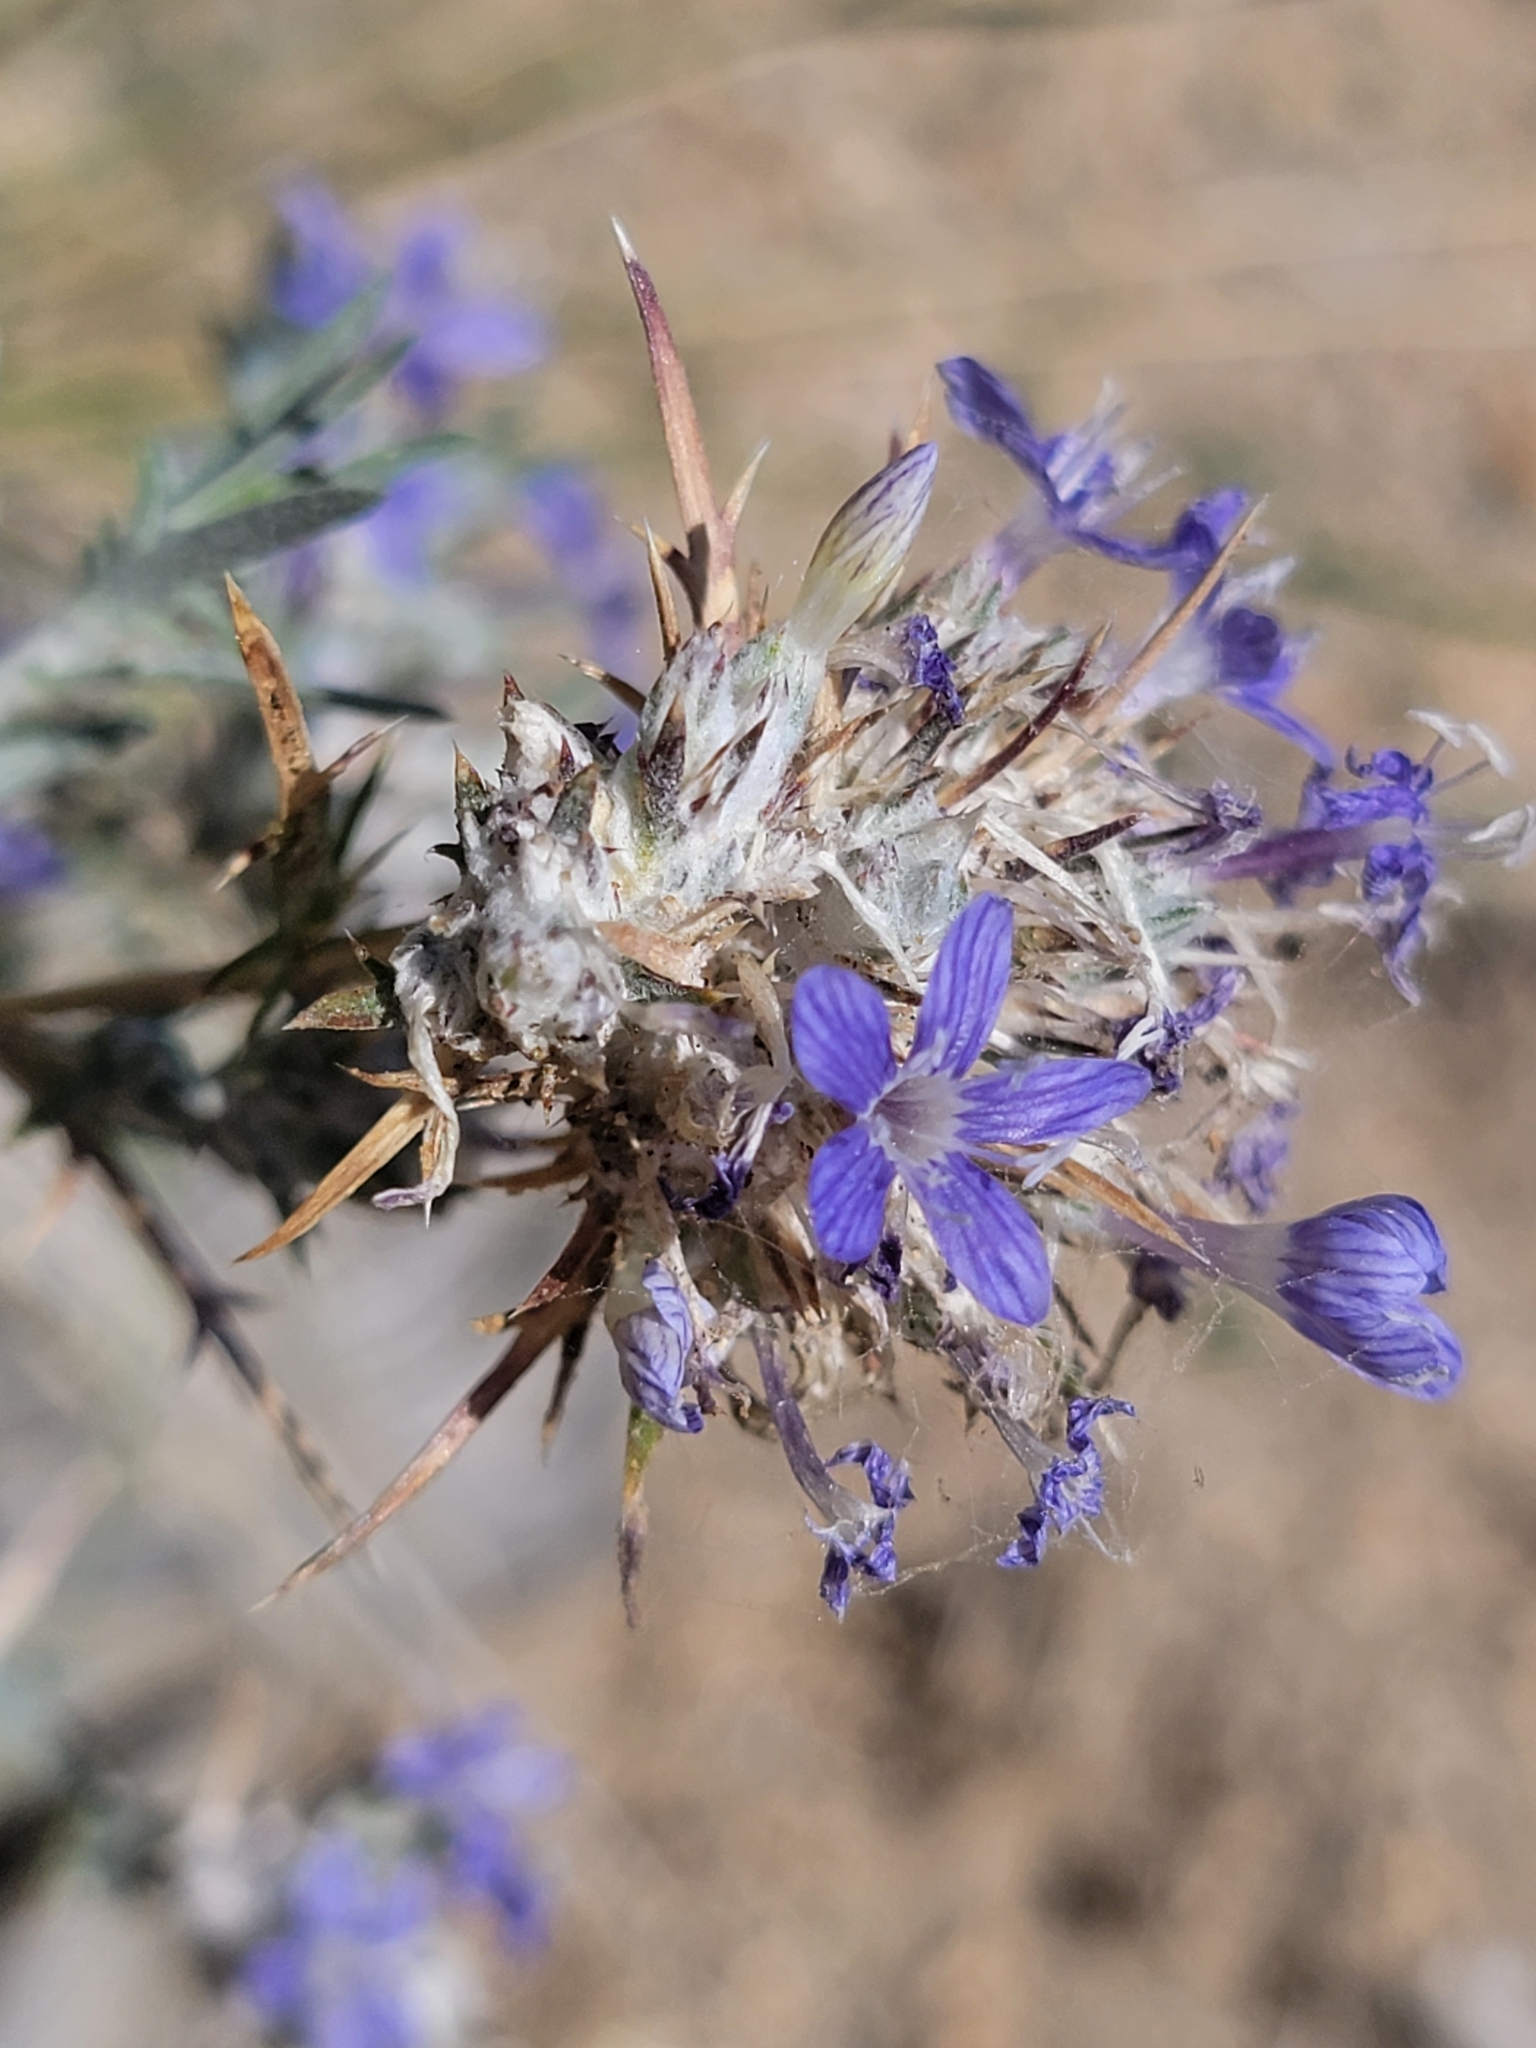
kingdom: Plantae
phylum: Tracheophyta
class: Magnoliopsida
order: Ericales
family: Polemoniaceae
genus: Eriastrum
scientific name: Eriastrum densifolium
